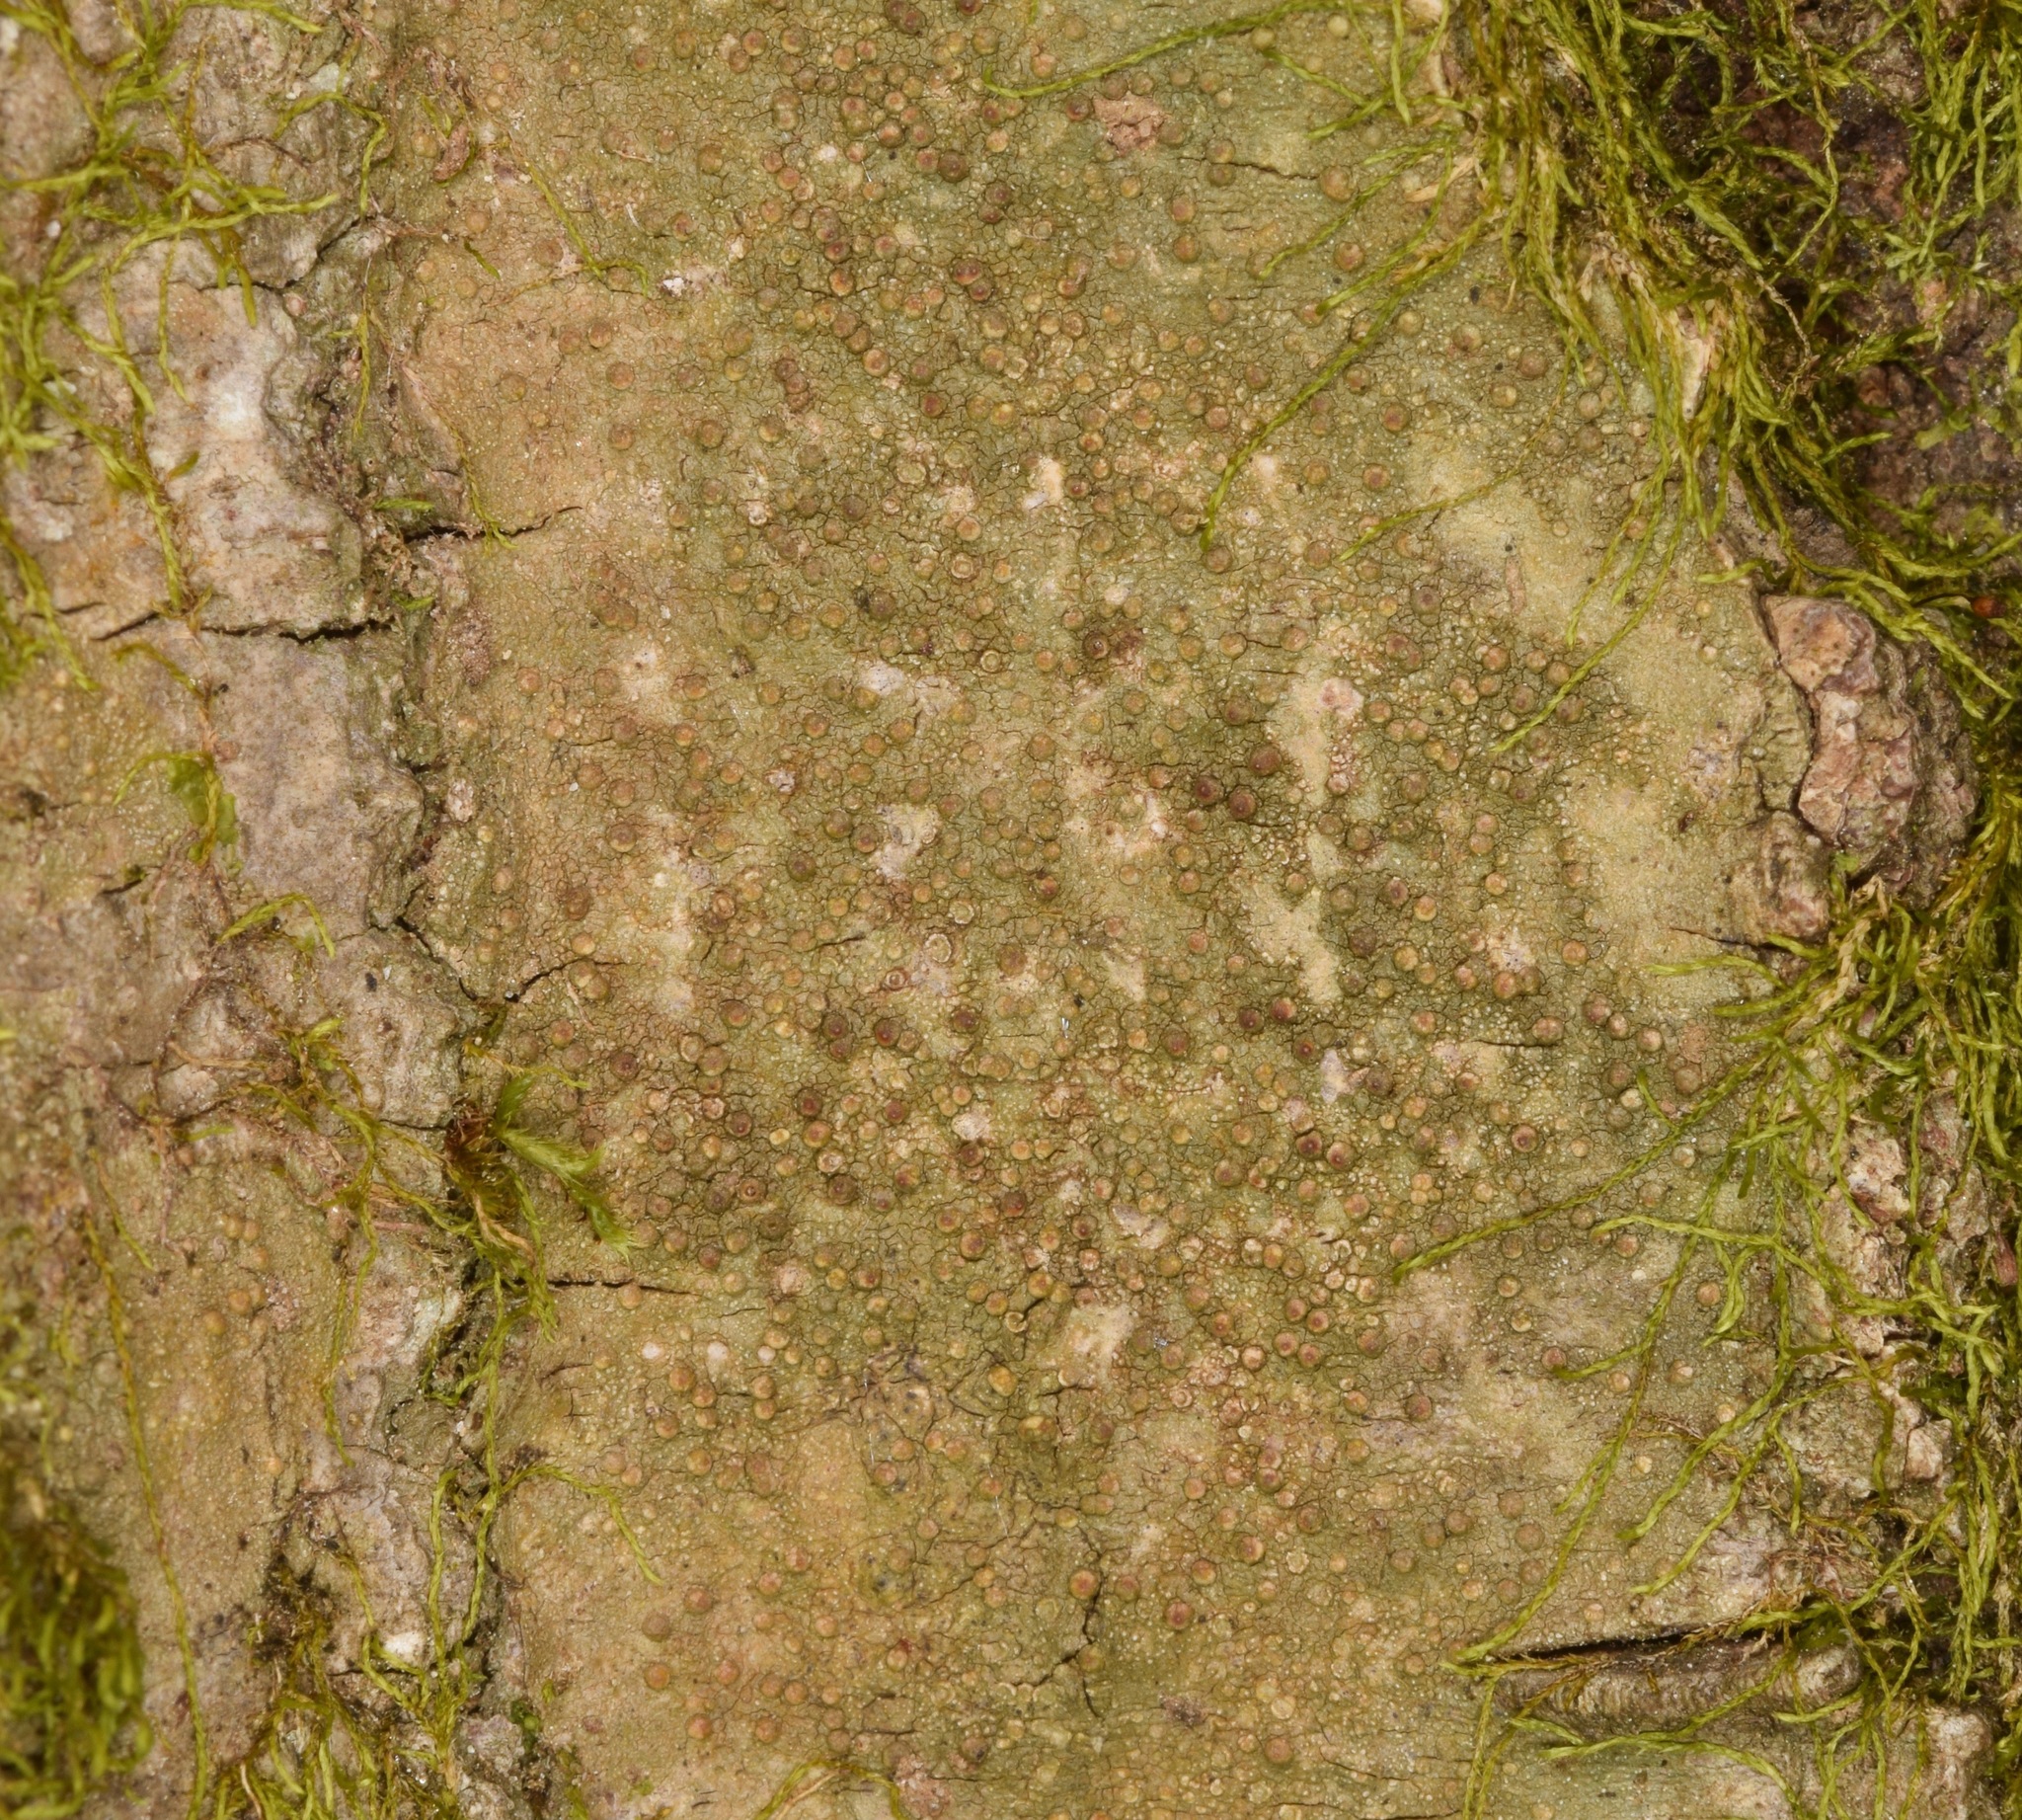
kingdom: Fungi
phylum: Ascomycota
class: Lecanoromycetes
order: Pertusariales
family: Pertusariaceae
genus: Porina
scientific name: Porina heterospora
